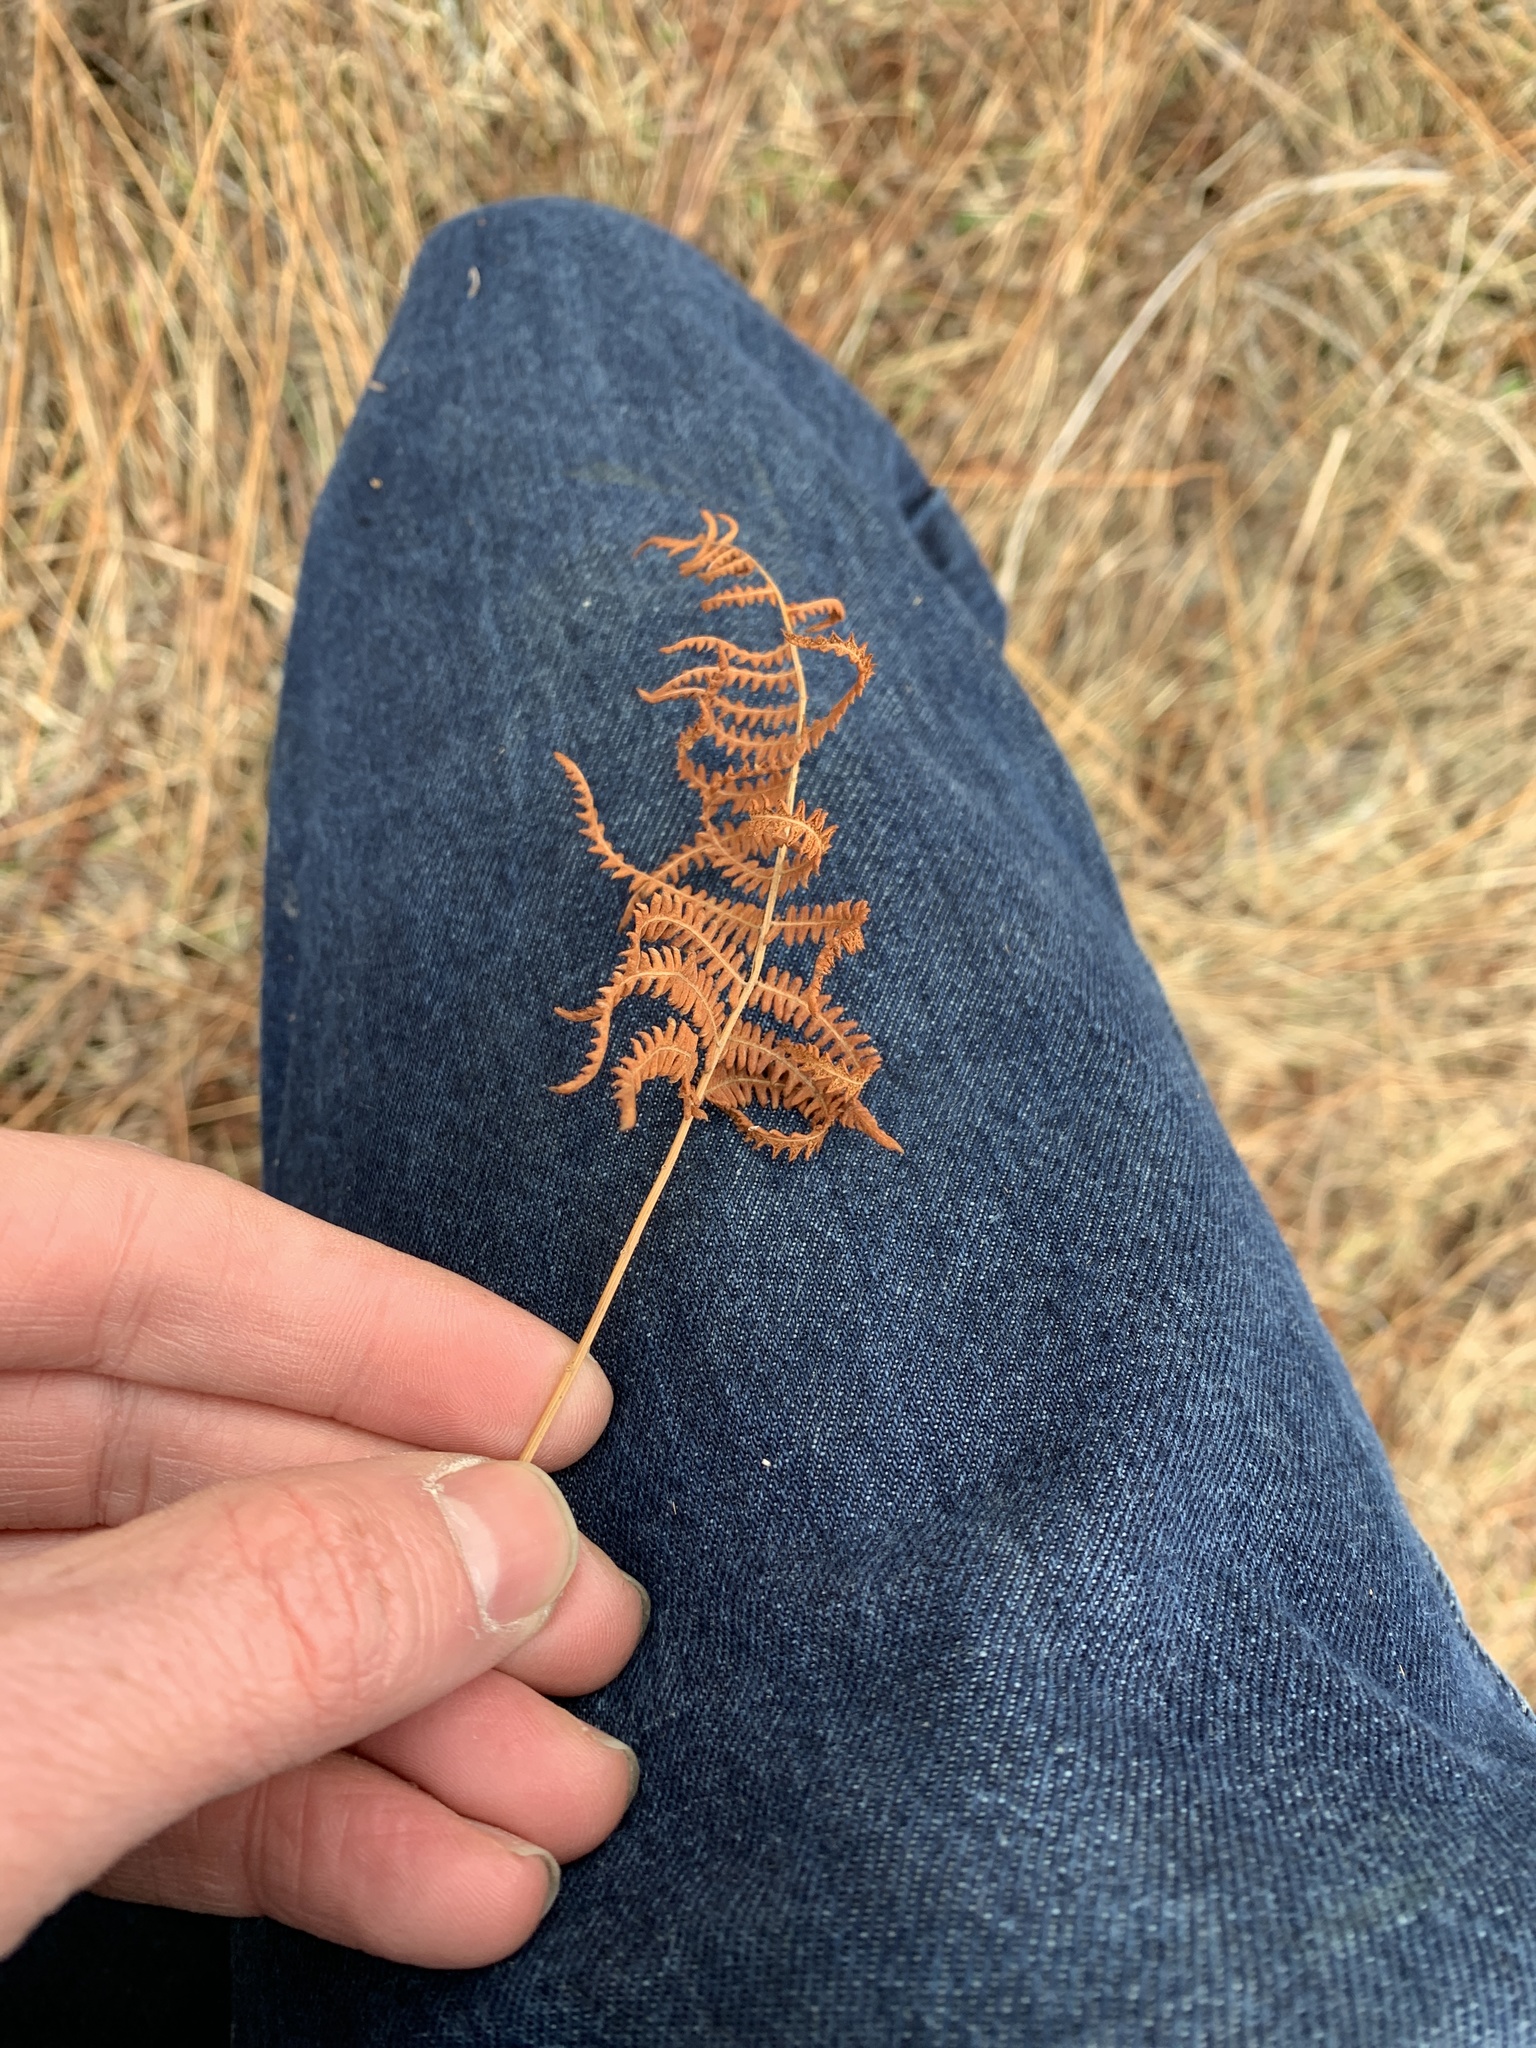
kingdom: Plantae
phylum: Tracheophyta
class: Polypodiopsida
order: Polypodiales
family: Thelypteridaceae
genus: Thelypteris
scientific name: Thelypteris palustris
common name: Marsh fern
